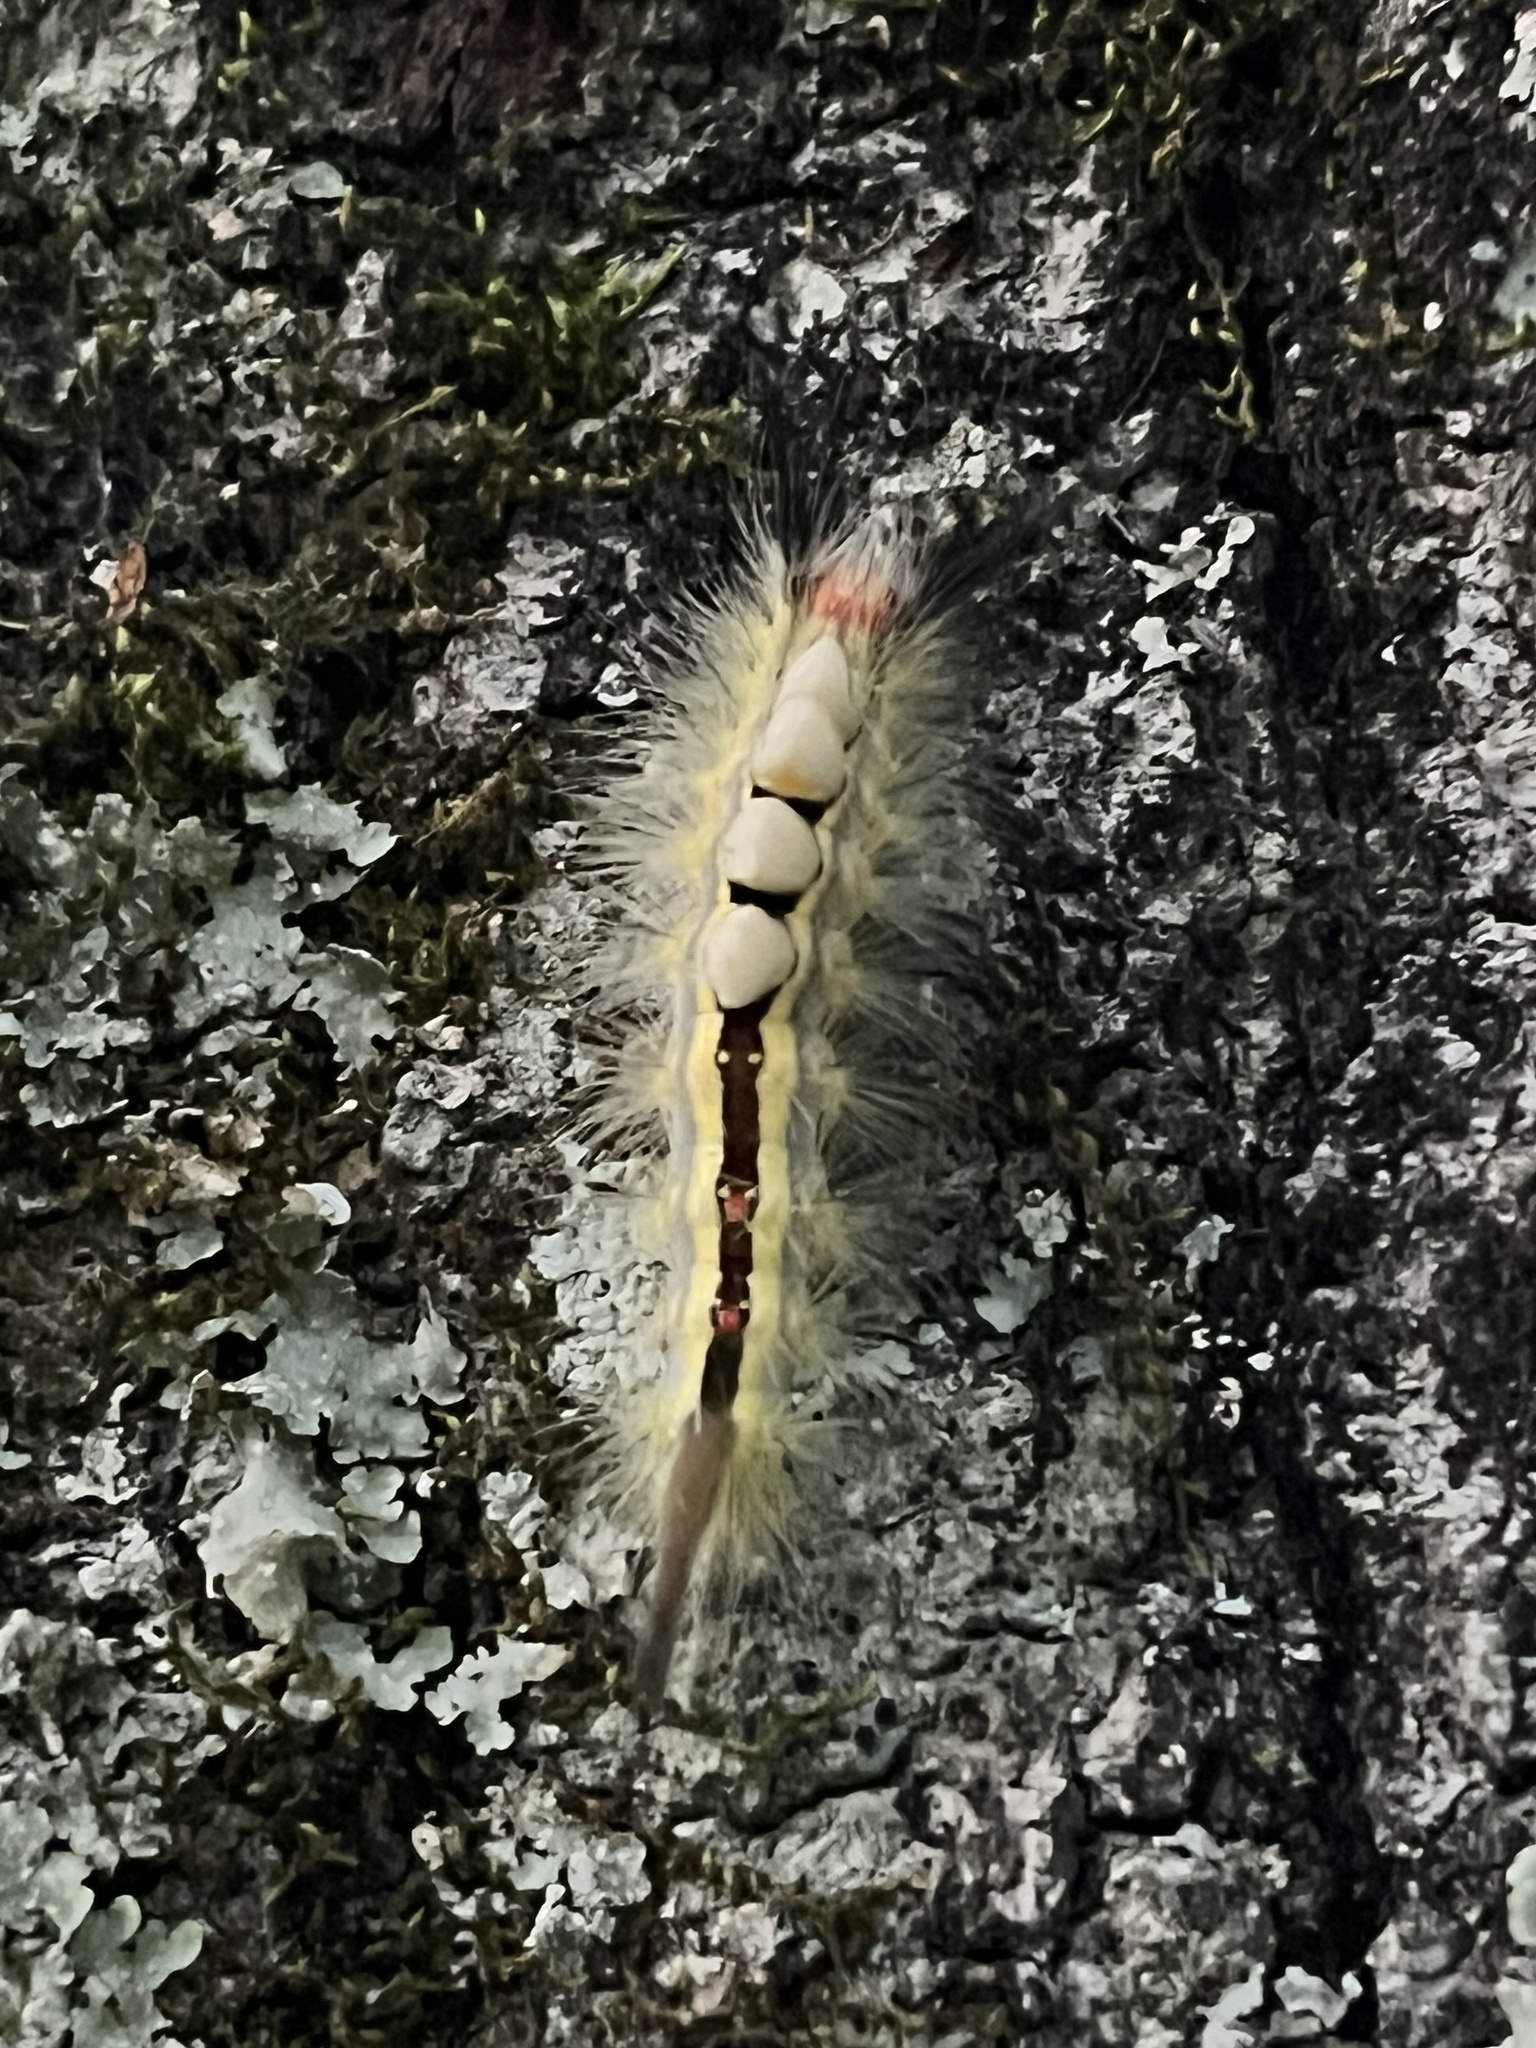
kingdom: Animalia
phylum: Arthropoda
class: Insecta
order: Lepidoptera
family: Erebidae
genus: Orgyia
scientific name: Orgyia leucostigma
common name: White-marked tussock moth
